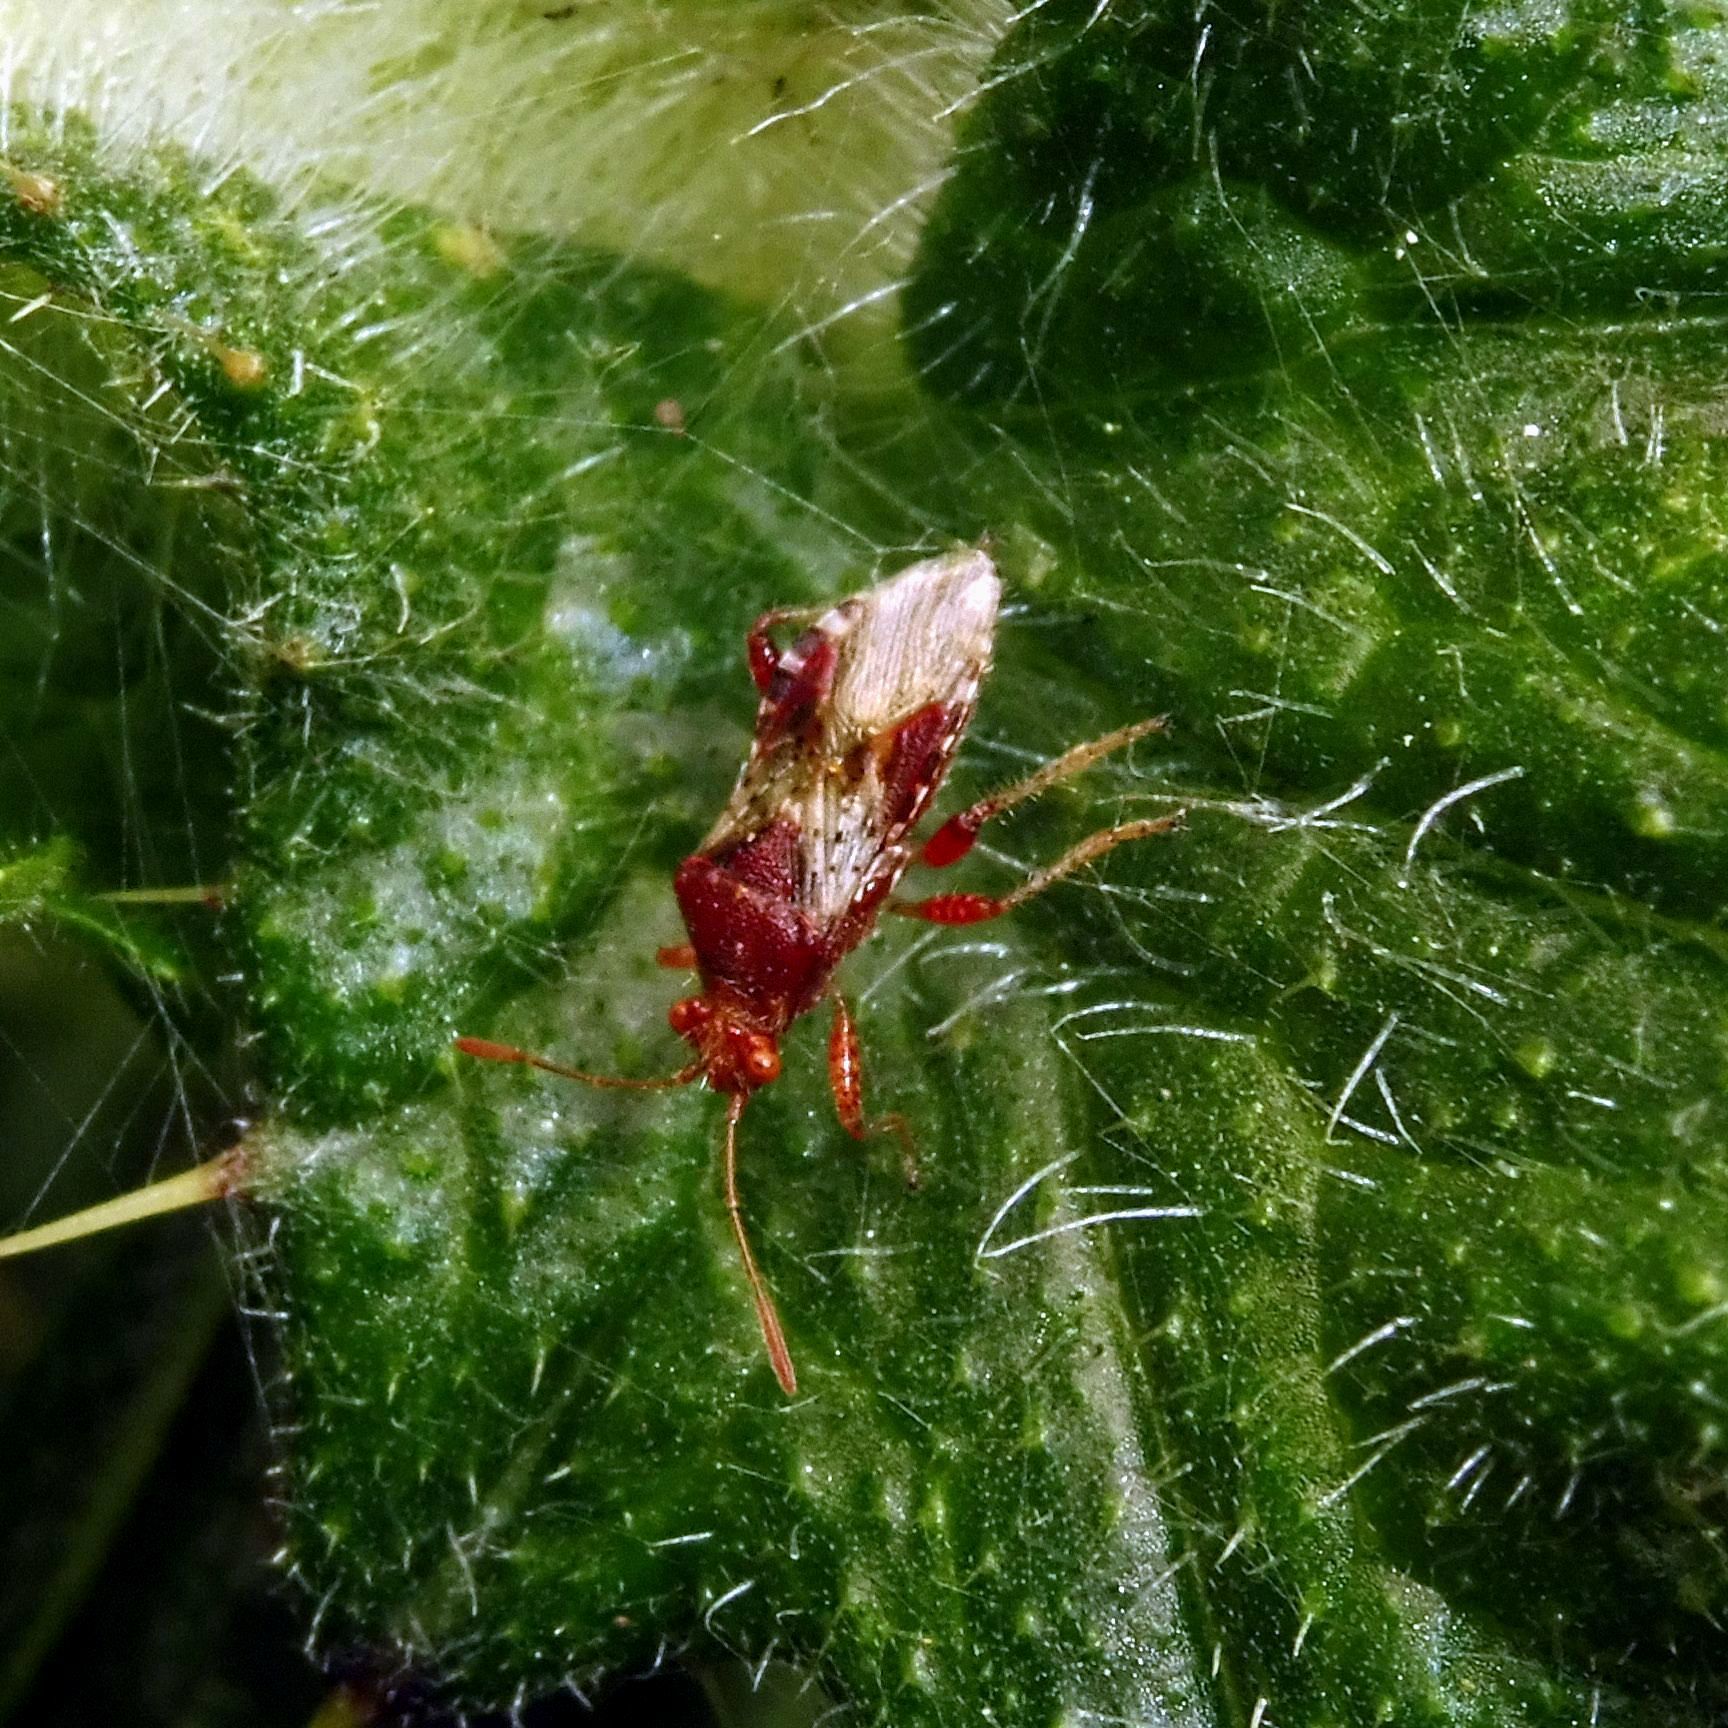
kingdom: Animalia
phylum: Arthropoda
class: Insecta
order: Hemiptera
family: Rhopalidae
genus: Rhopalus
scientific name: Rhopalus subrufus
